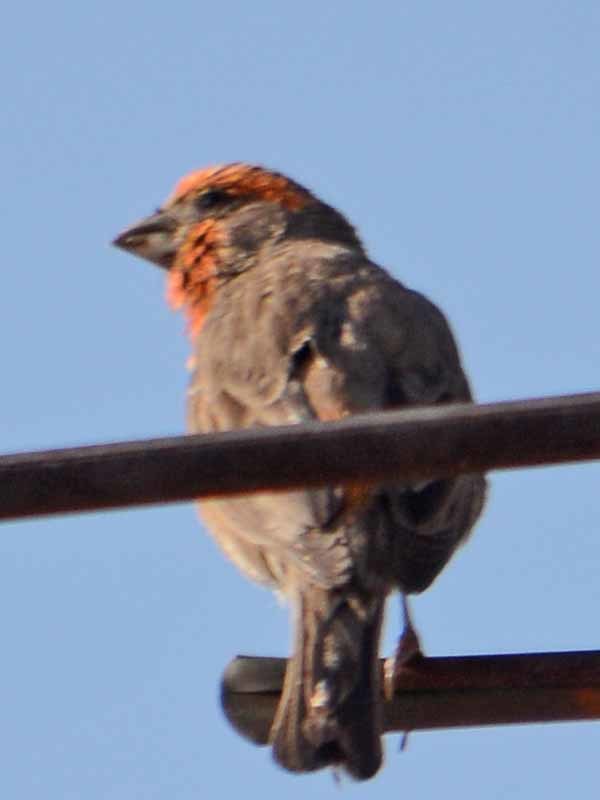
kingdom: Animalia
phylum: Chordata
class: Aves
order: Passeriformes
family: Fringillidae
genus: Haemorhous
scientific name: Haemorhous mexicanus
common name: House finch
